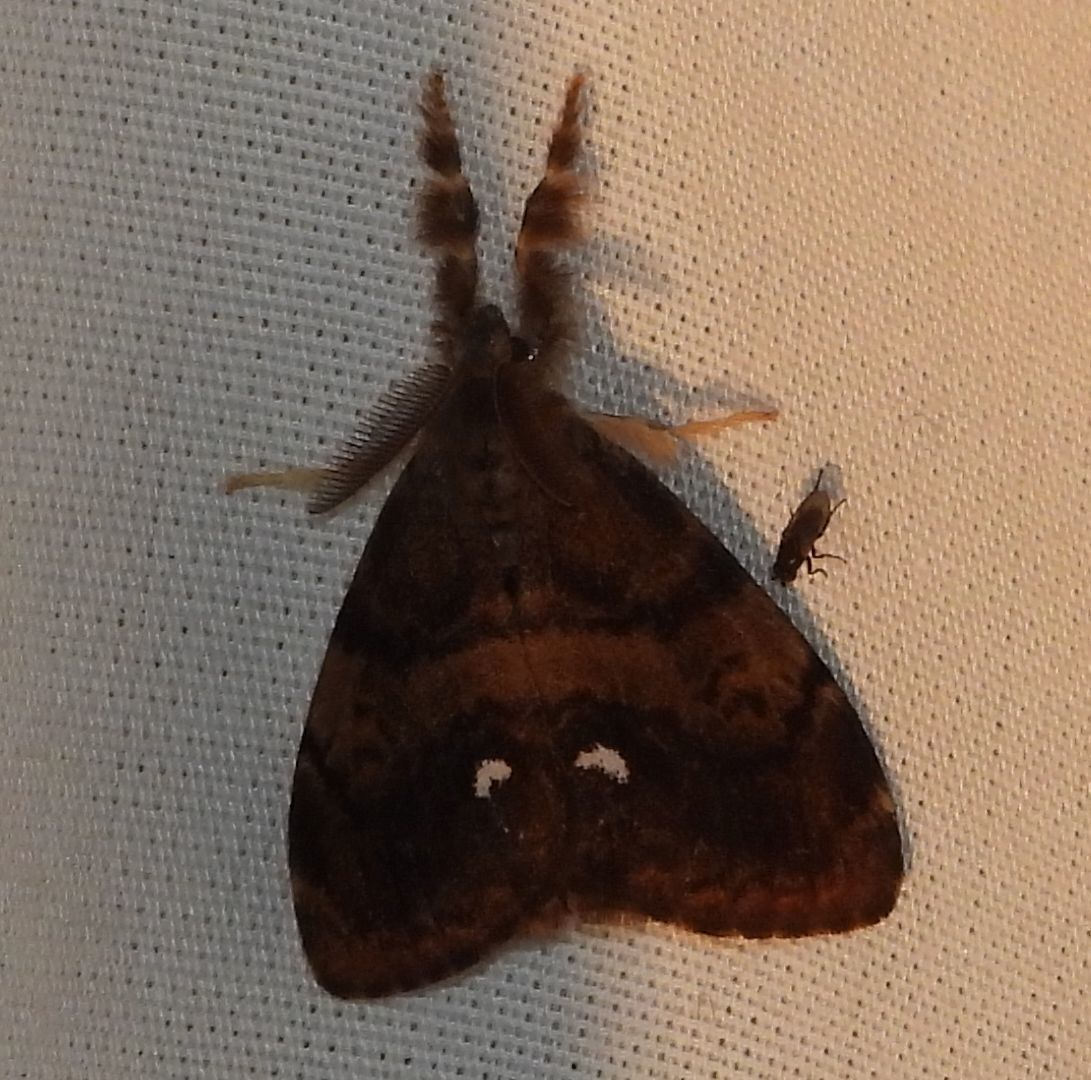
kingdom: Animalia
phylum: Arthropoda
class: Insecta
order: Lepidoptera
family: Erebidae
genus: Orgyia
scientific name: Orgyia antiqua
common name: Vapourer
